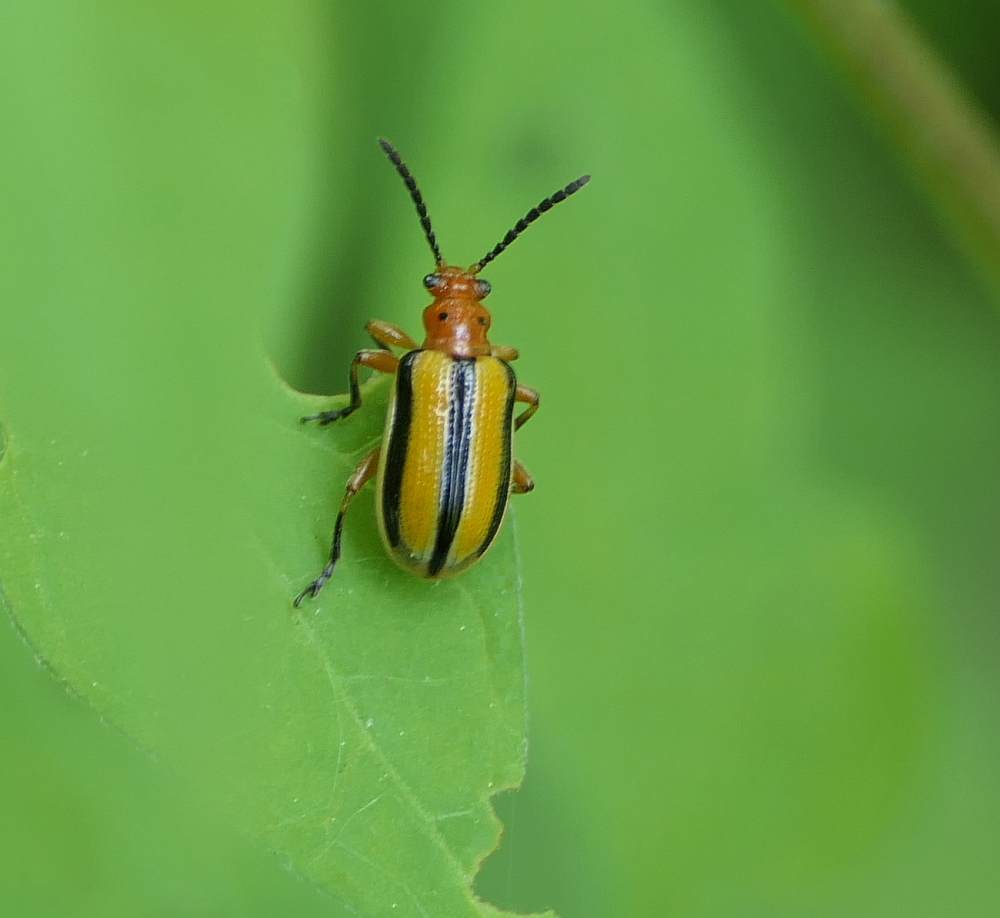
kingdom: Animalia
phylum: Arthropoda
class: Insecta
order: Coleoptera
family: Chrysomelidae
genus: Lema
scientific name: Lema daturaphila
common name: Leaf beetle
